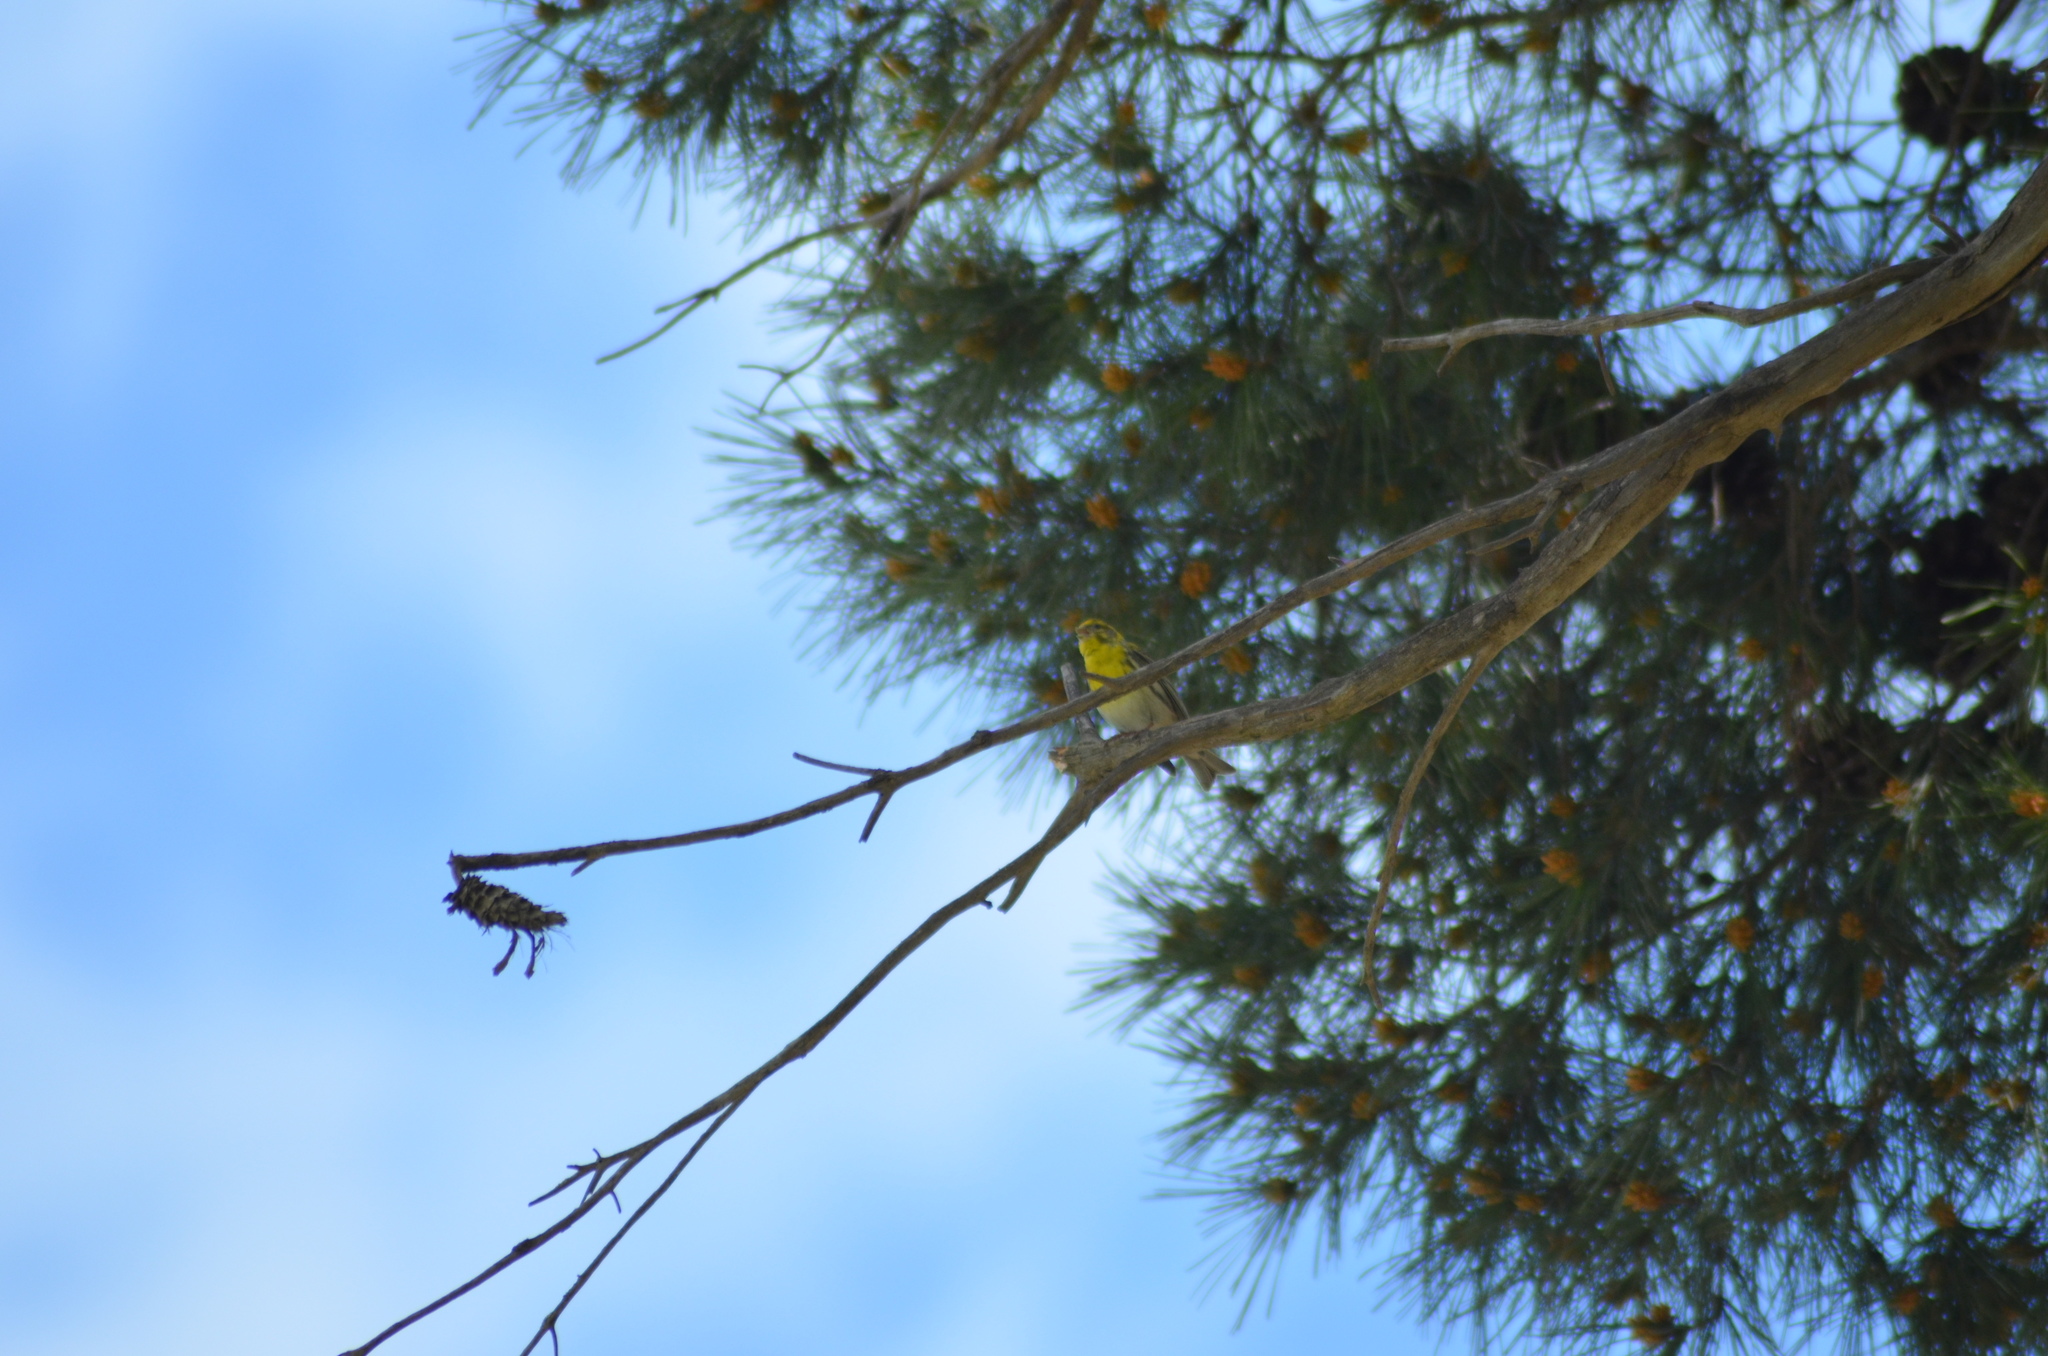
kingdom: Animalia
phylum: Chordata
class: Aves
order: Passeriformes
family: Fringillidae
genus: Serinus
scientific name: Serinus serinus
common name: European serin
